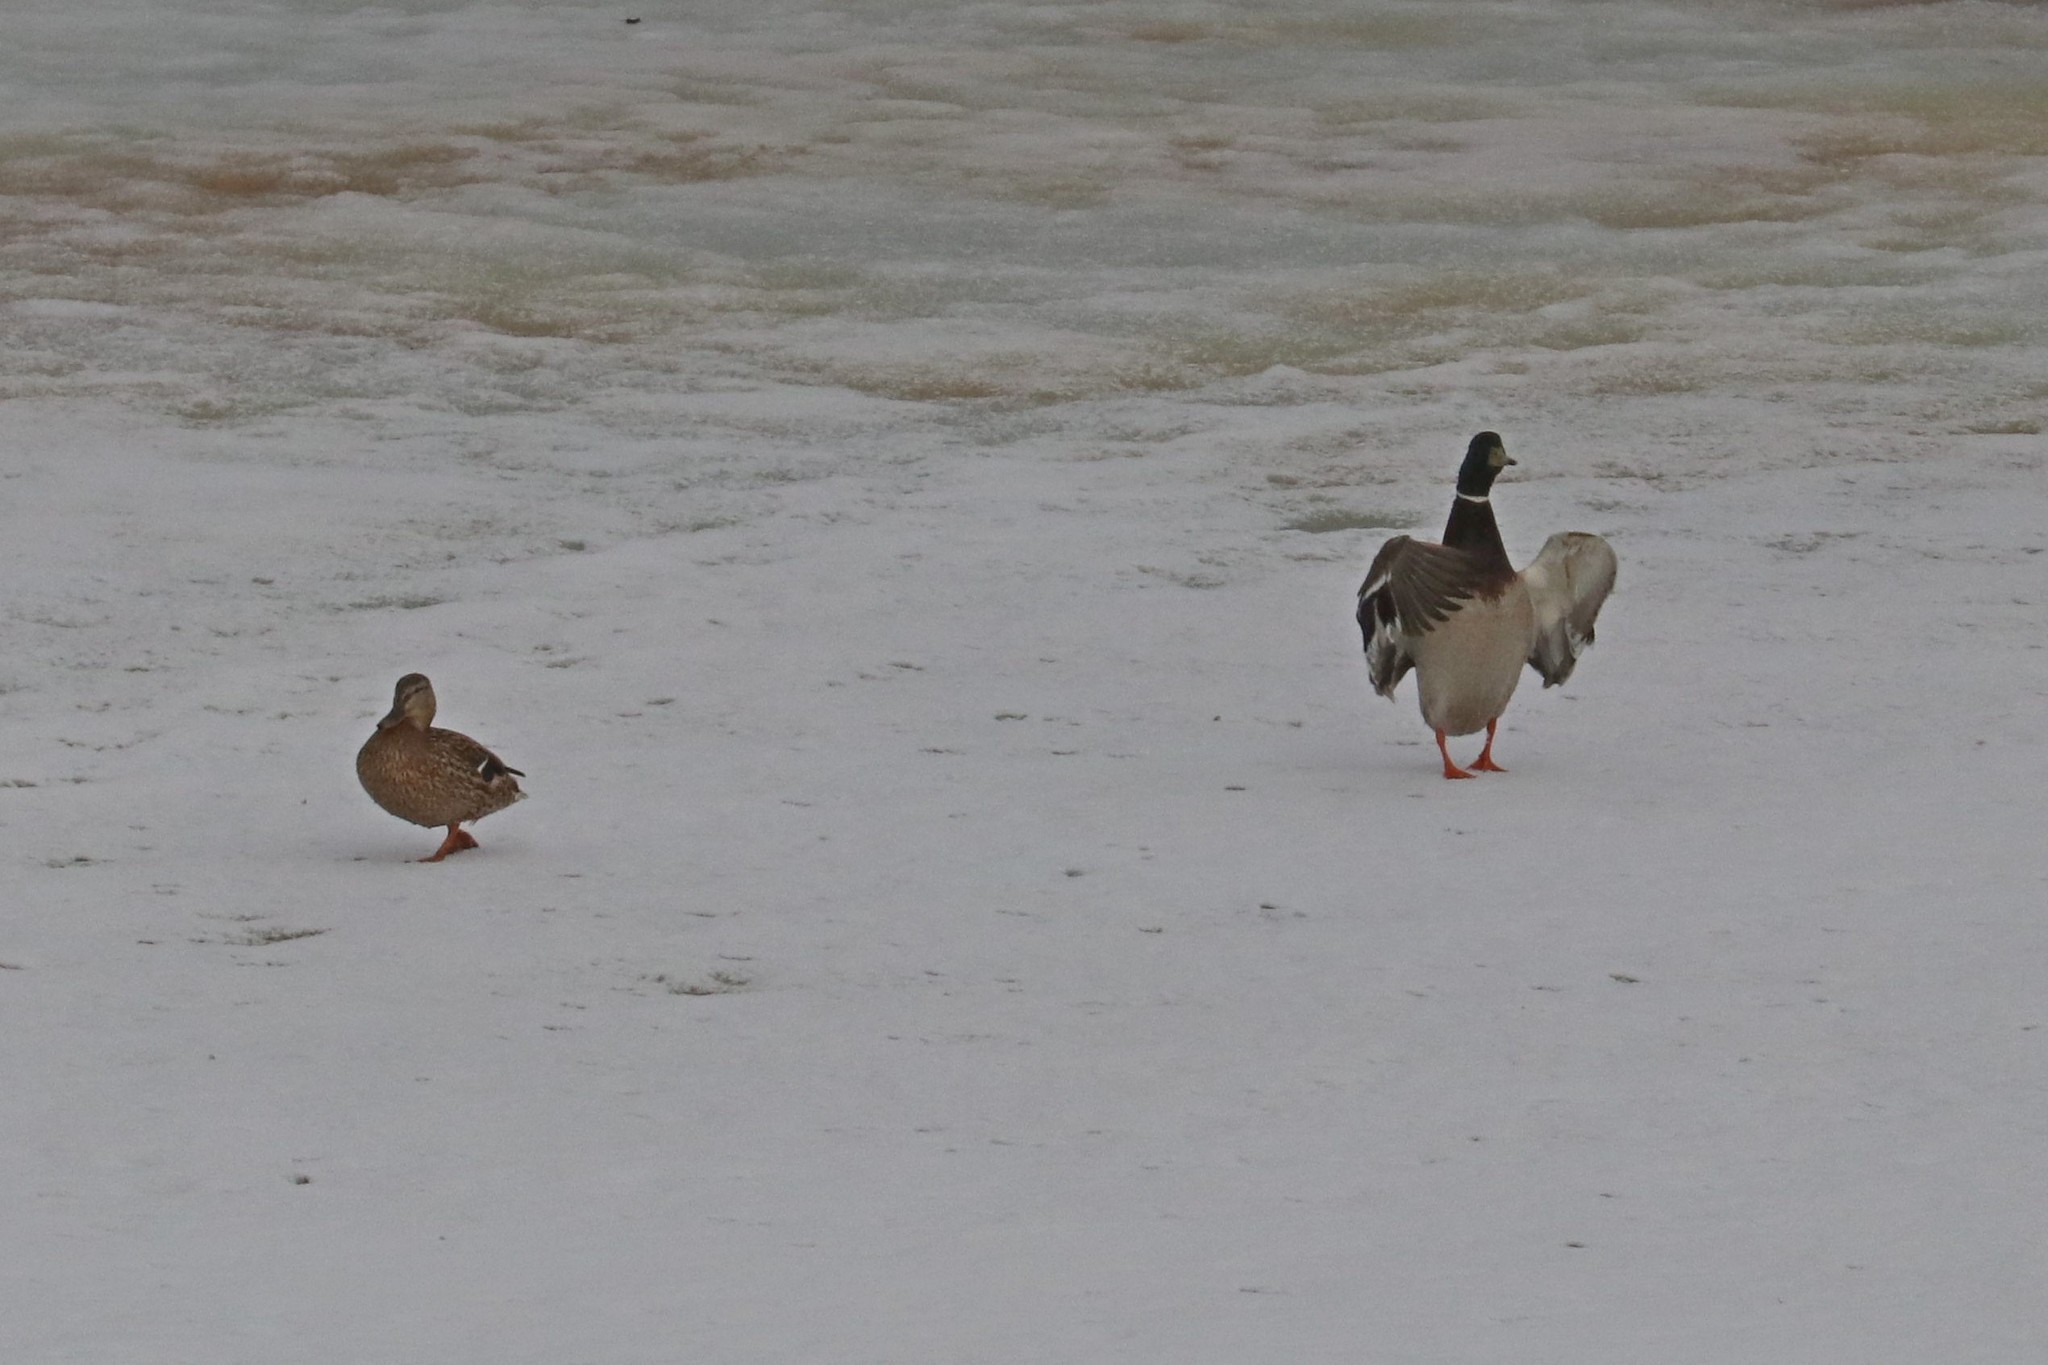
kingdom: Animalia
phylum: Chordata
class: Aves
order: Anseriformes
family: Anatidae
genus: Anas
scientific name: Anas platyrhynchos
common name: Mallard
